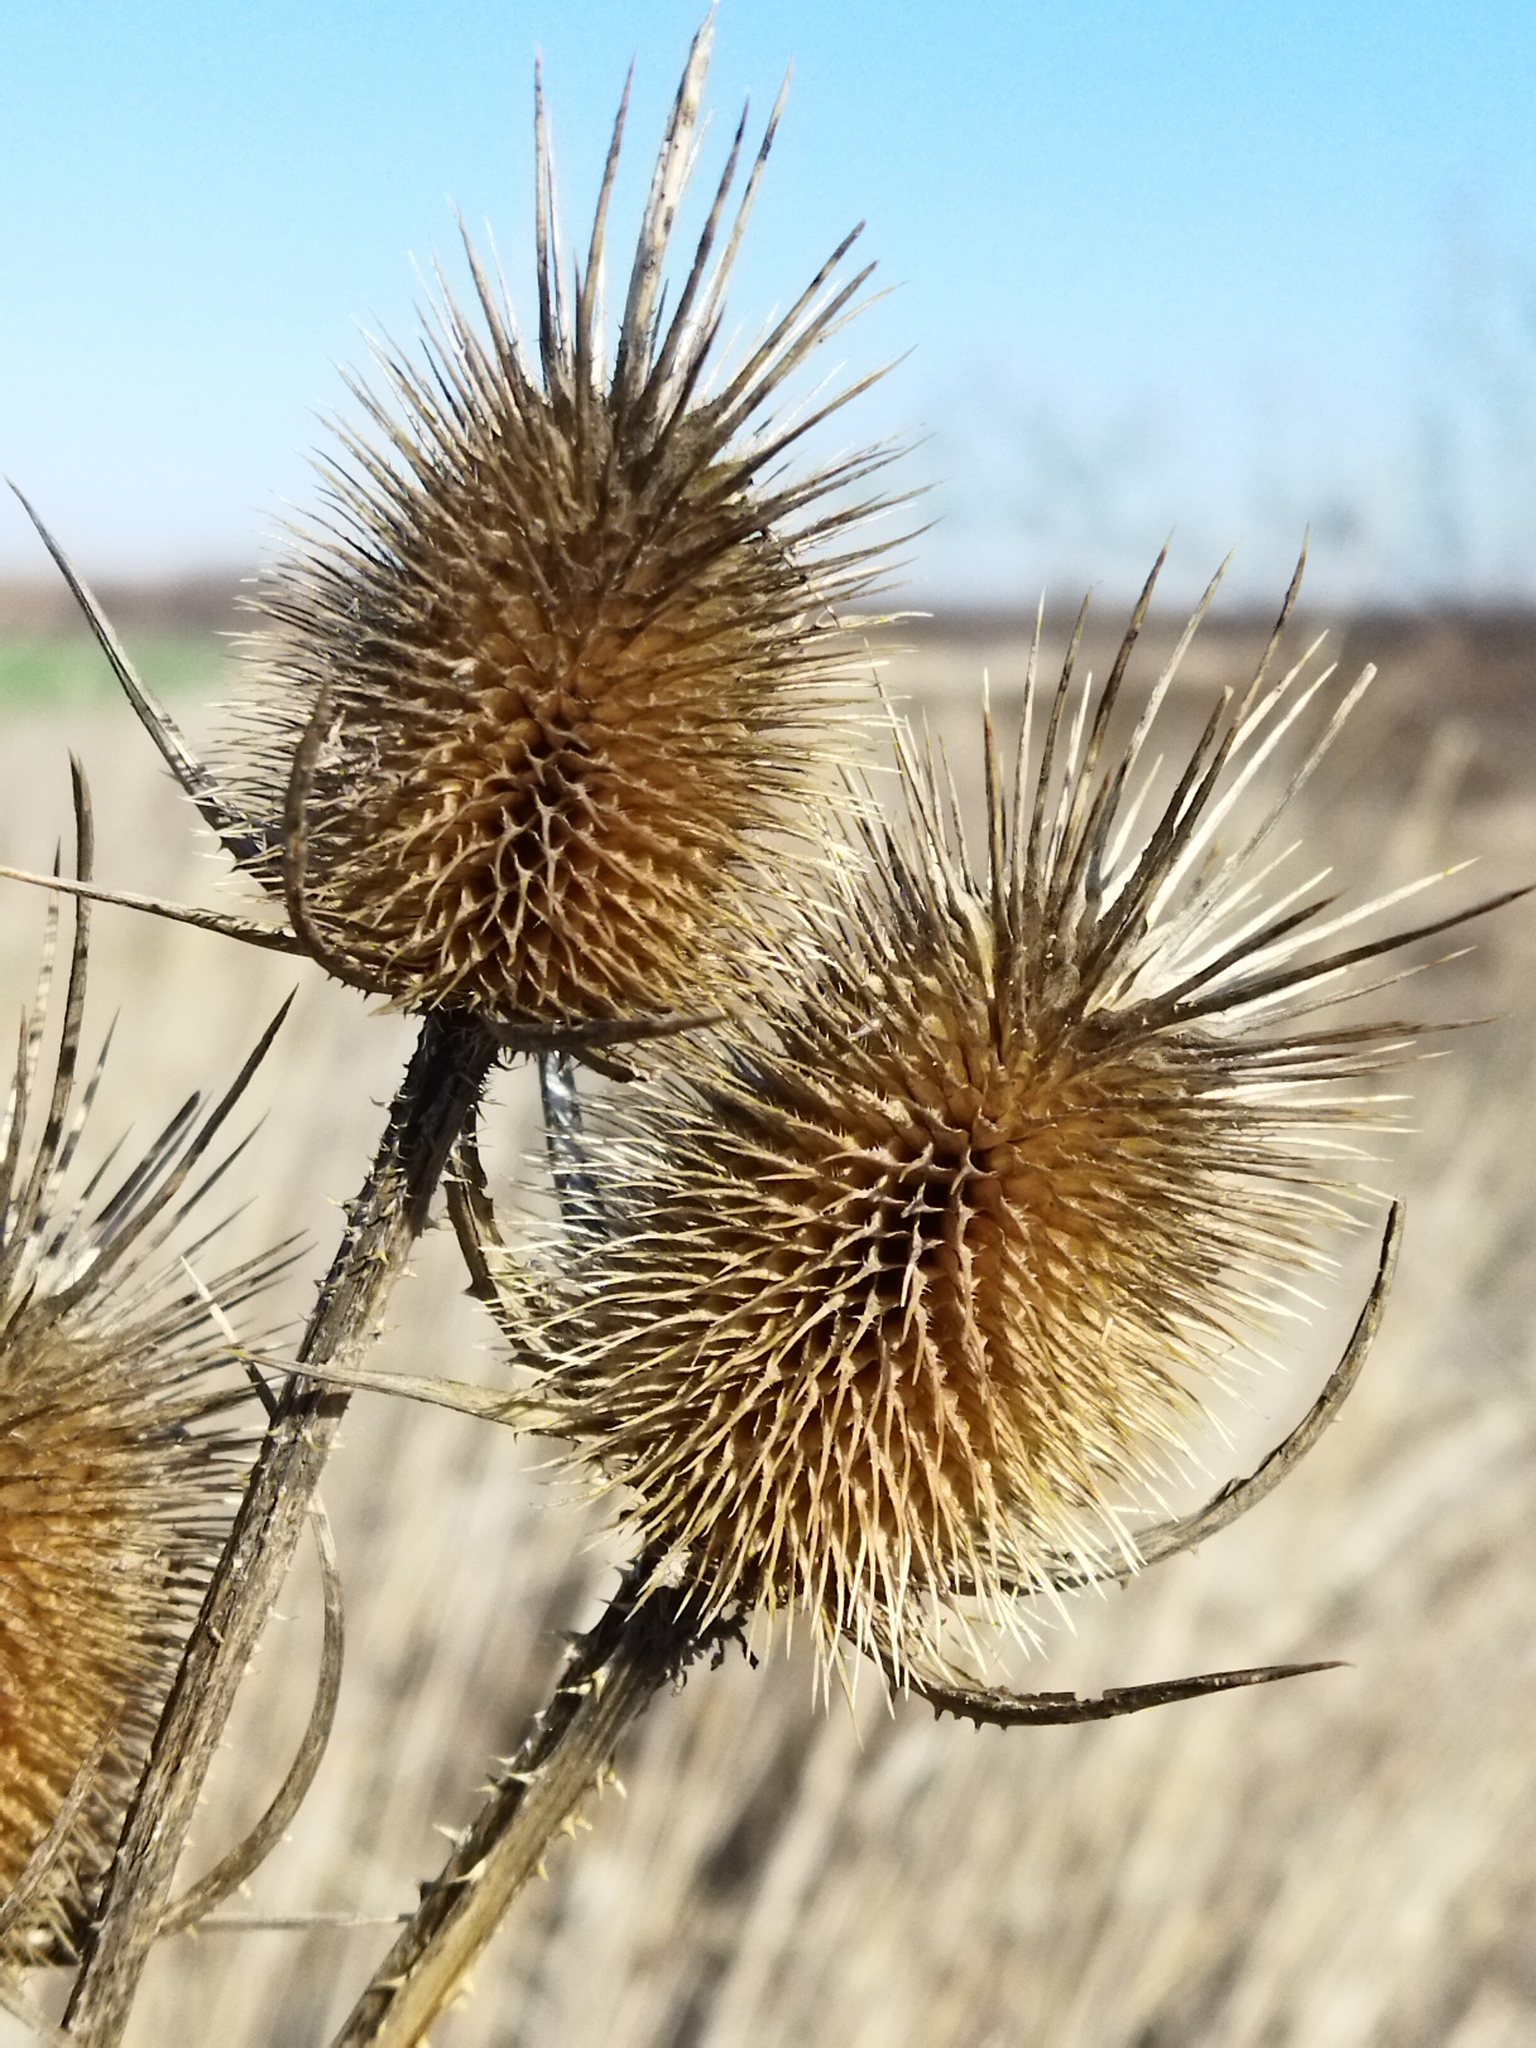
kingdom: Plantae
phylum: Tracheophyta
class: Magnoliopsida
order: Dipsacales
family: Caprifoliaceae
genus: Dipsacus
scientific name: Dipsacus laciniatus
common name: Cut-leaved teasel
